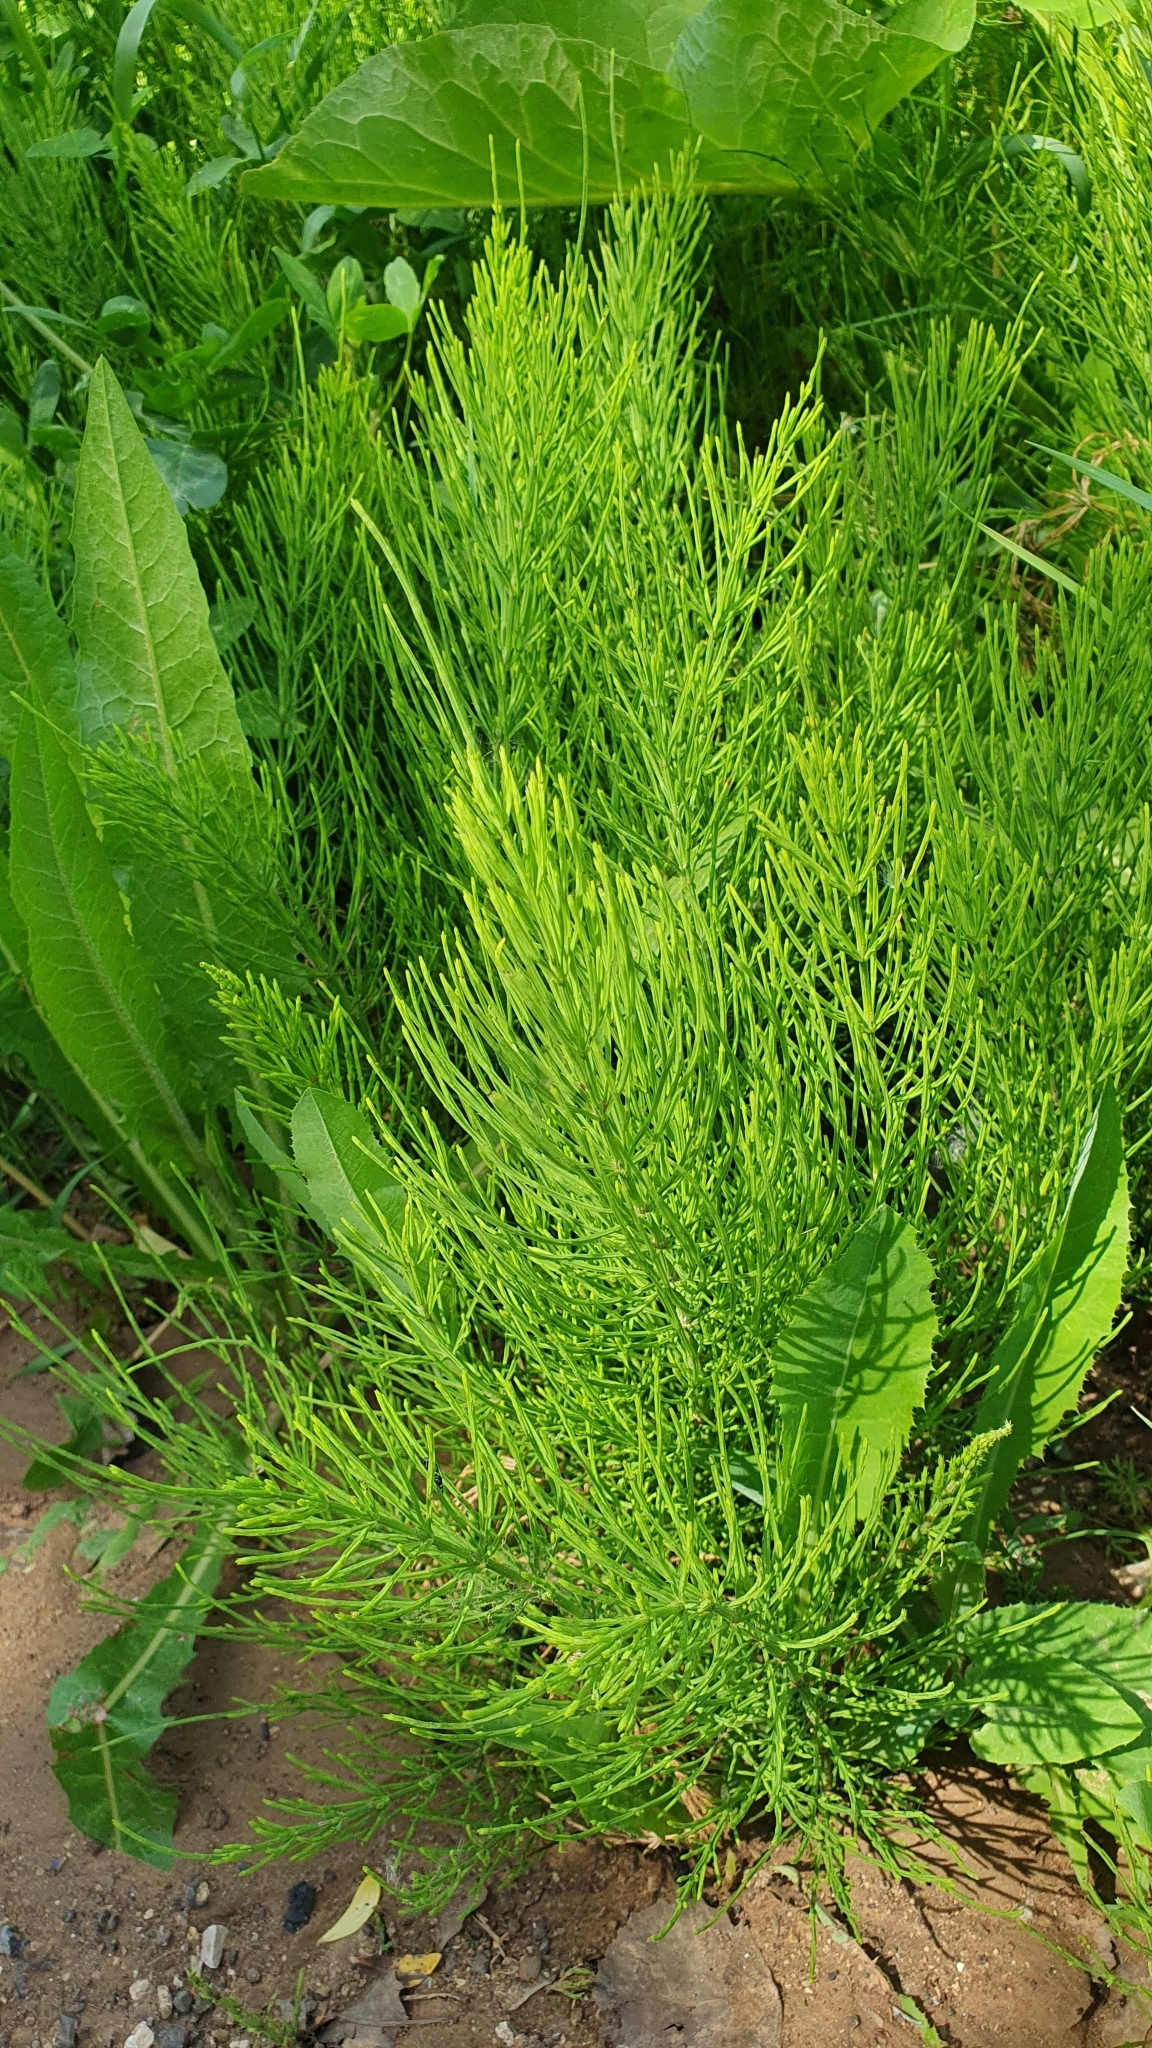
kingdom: Plantae
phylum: Tracheophyta
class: Polypodiopsida
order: Equisetales
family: Equisetaceae
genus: Equisetum
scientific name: Equisetum arvense
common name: Field horsetail
